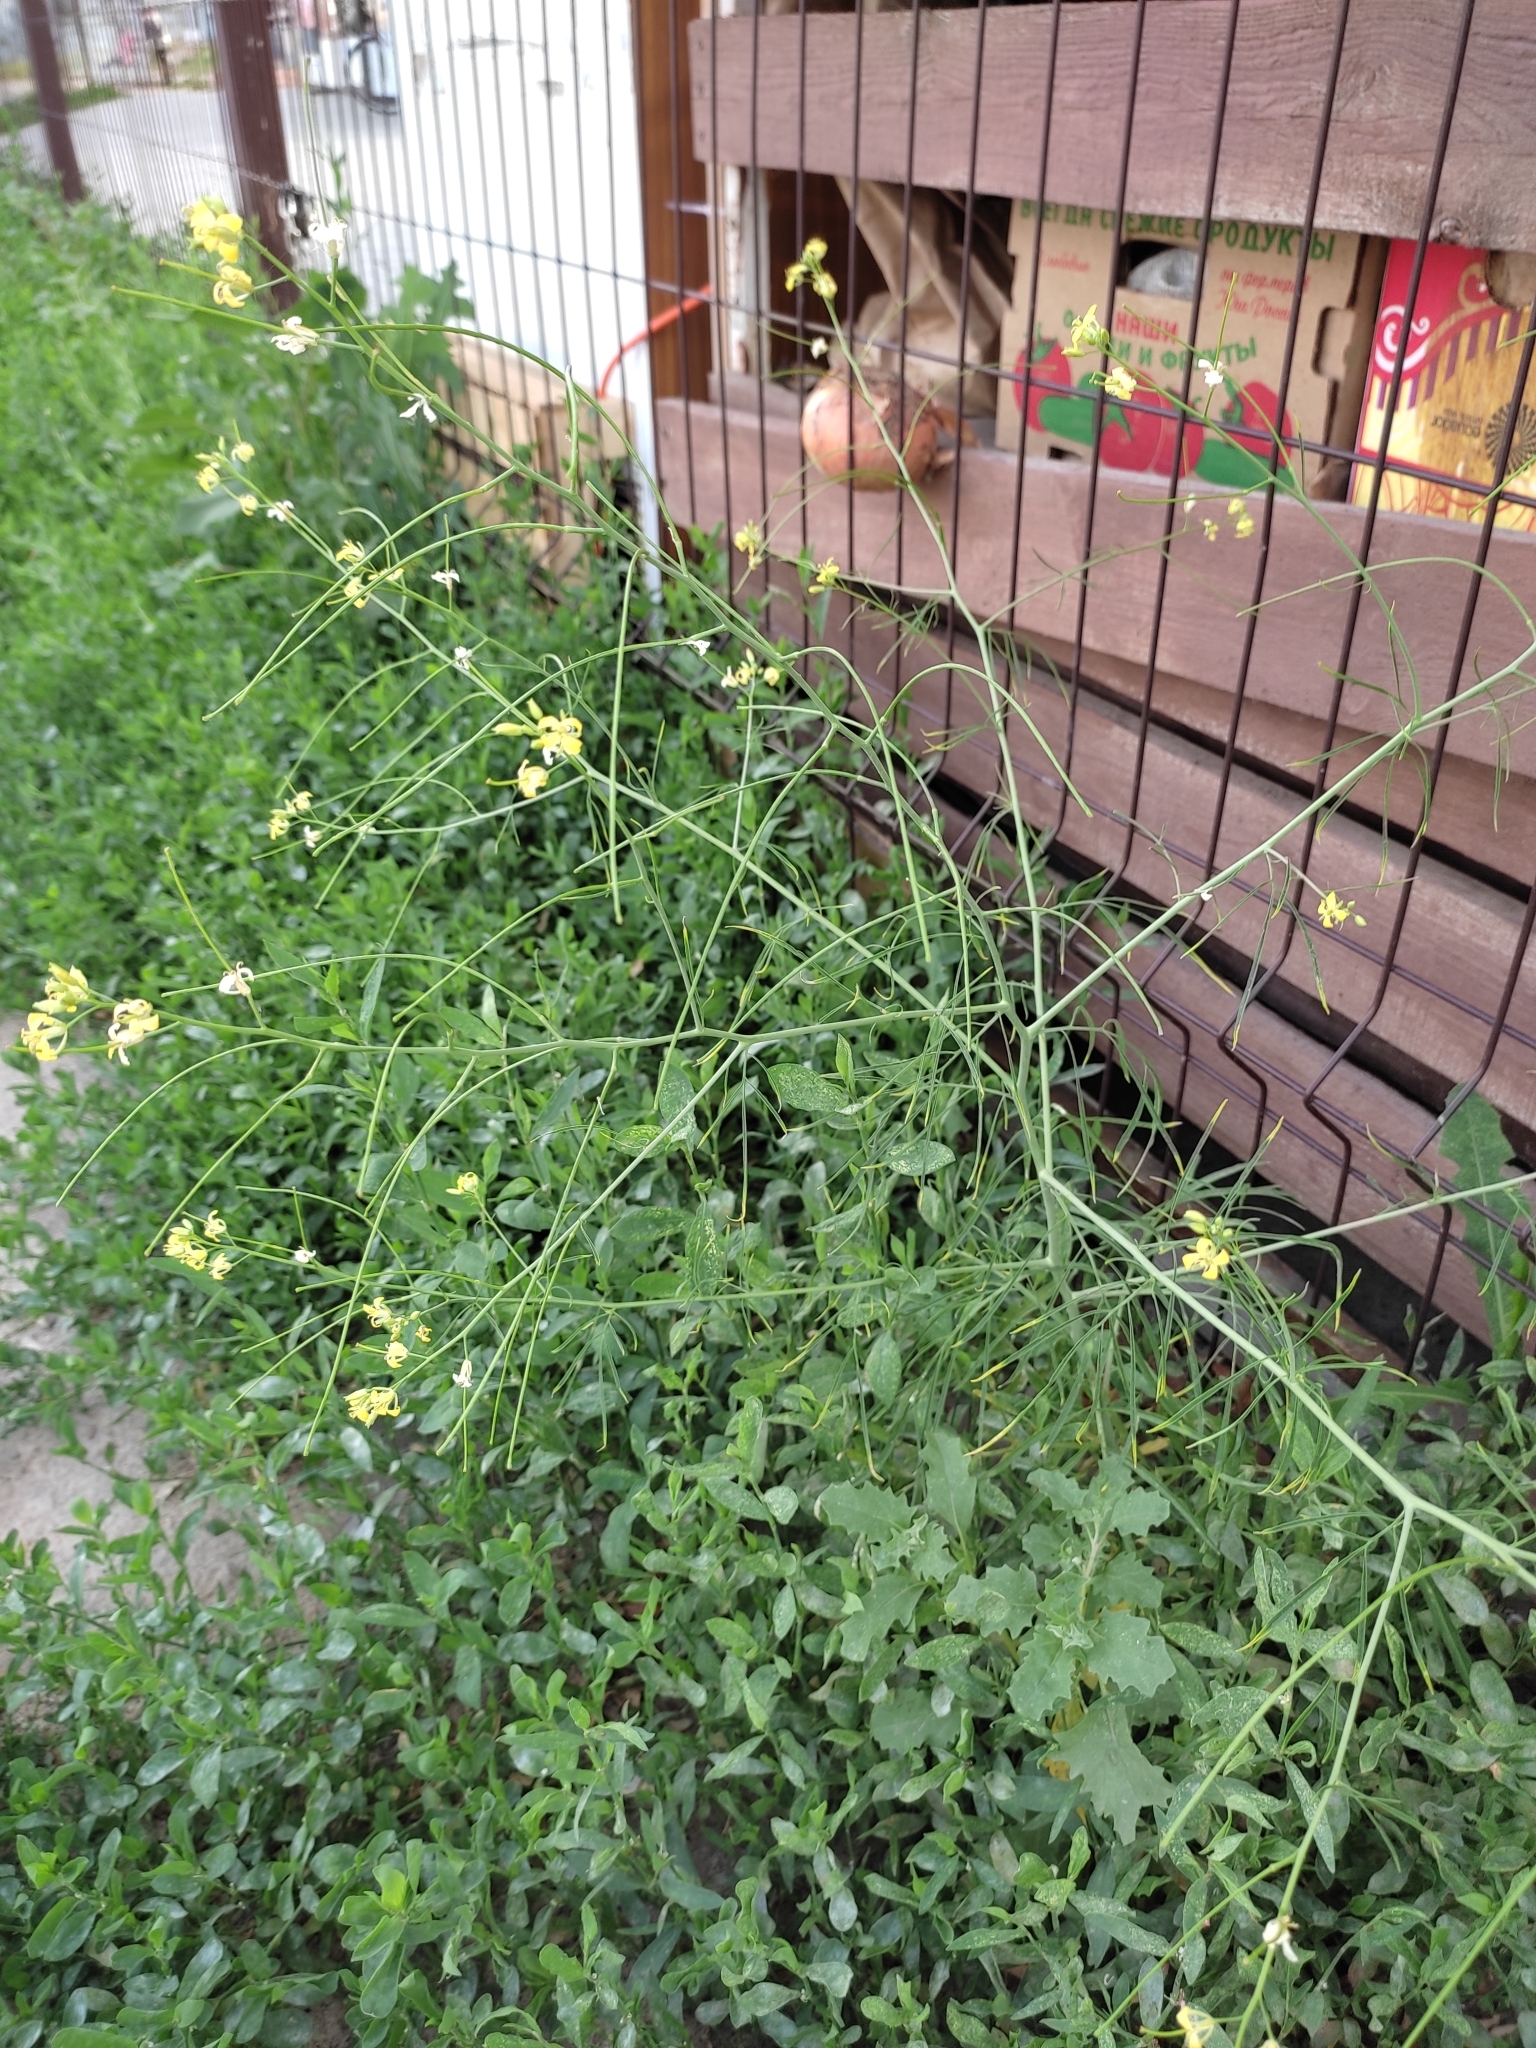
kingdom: Plantae
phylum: Tracheophyta
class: Magnoliopsida
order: Brassicales
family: Brassicaceae
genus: Sisymbrium
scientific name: Sisymbrium altissimum
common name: Tall rocket
